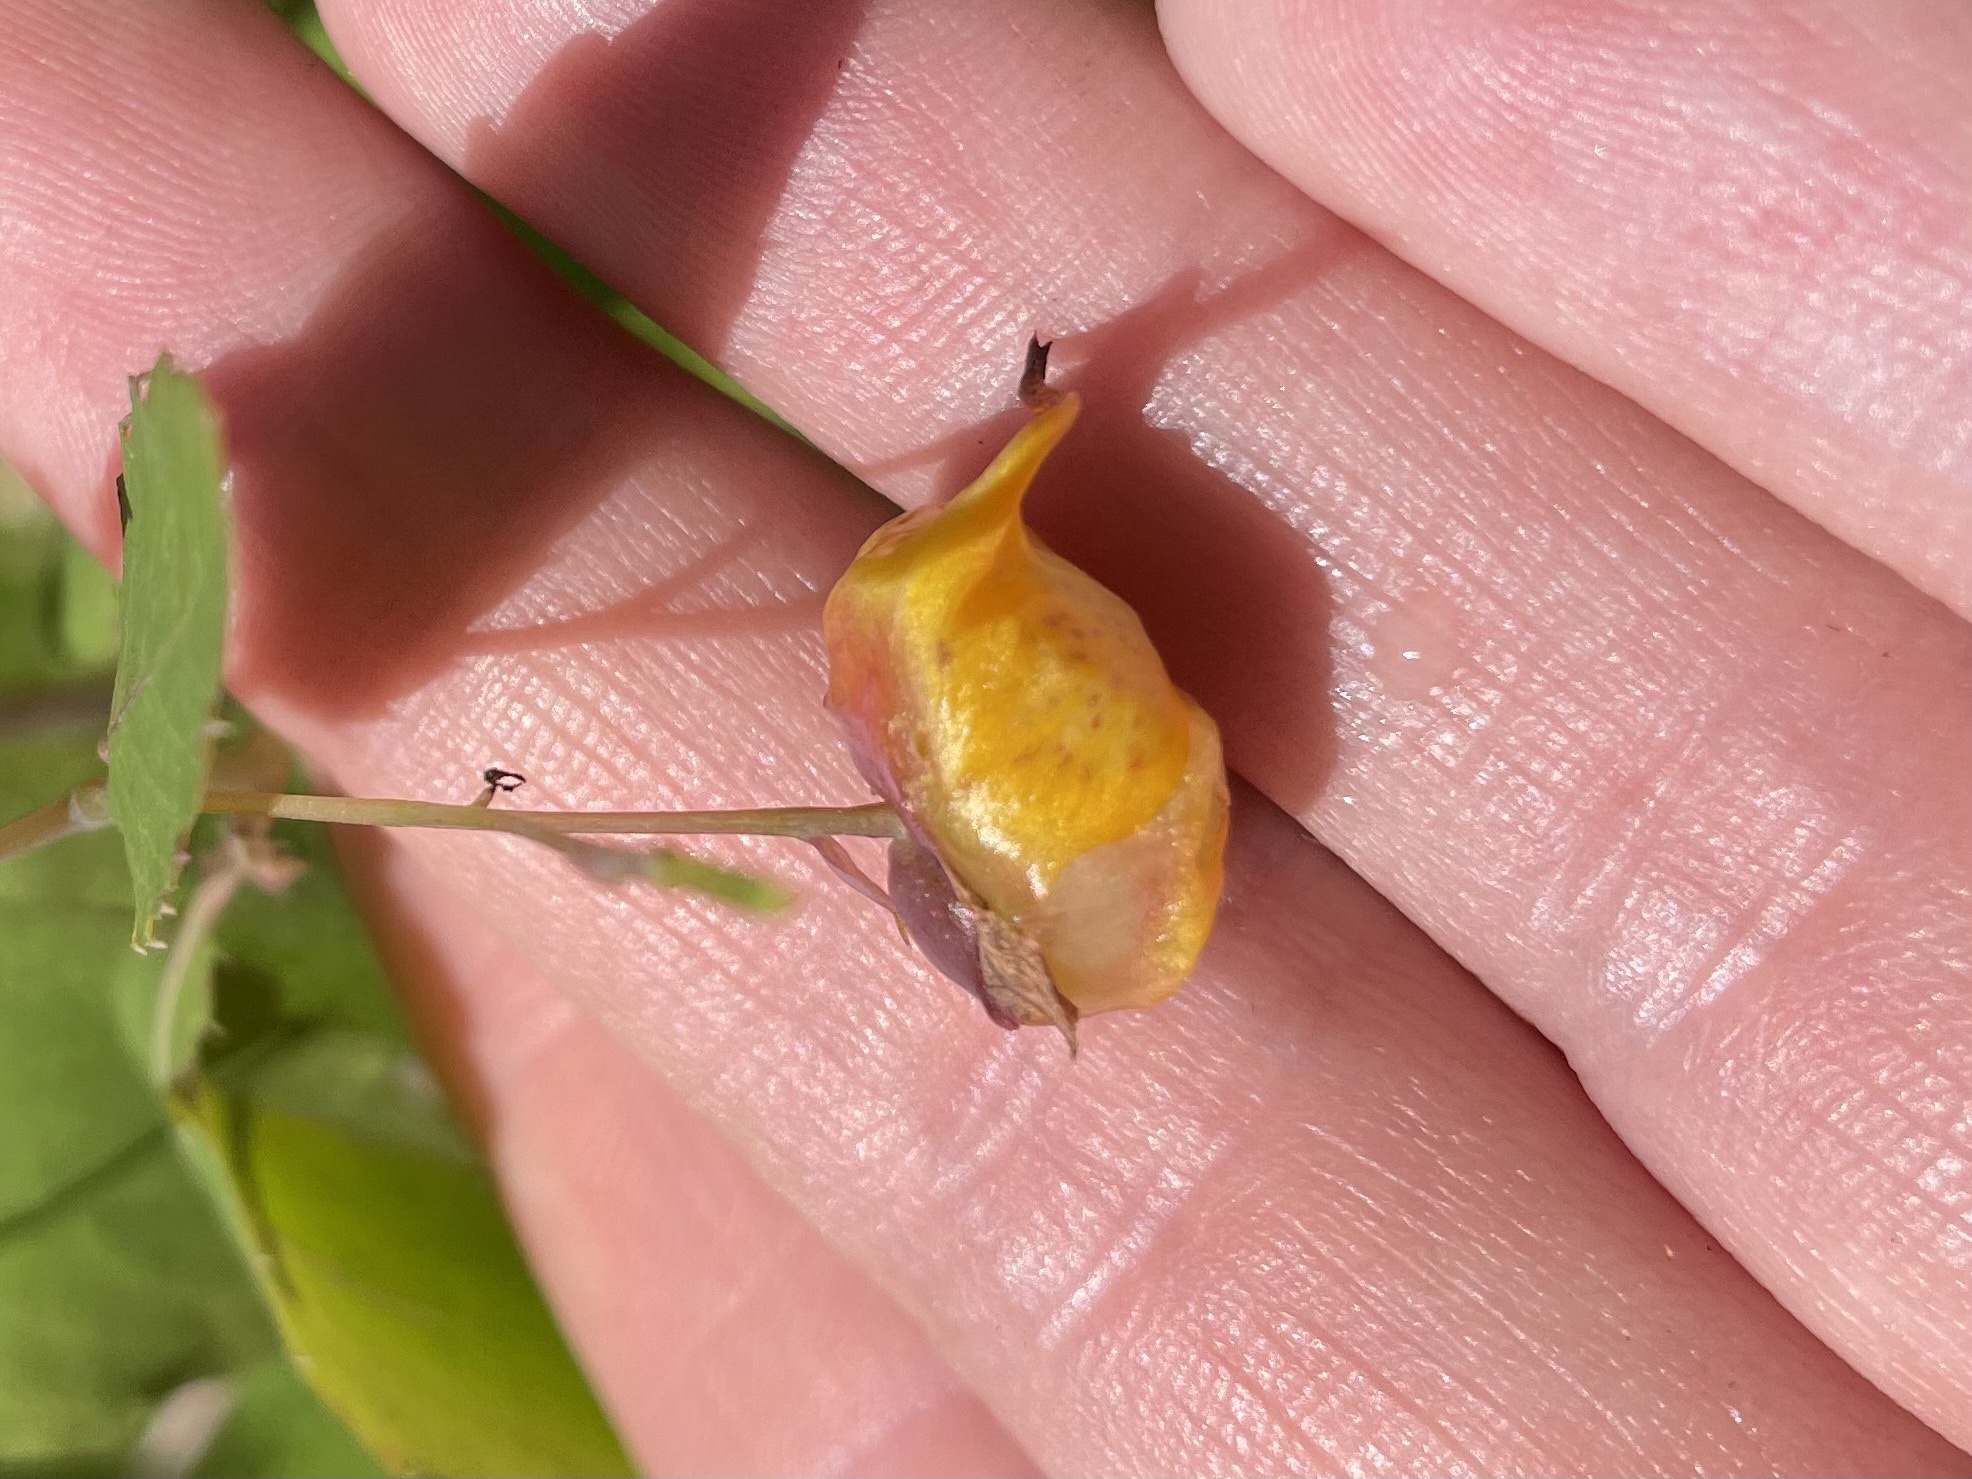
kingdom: Animalia
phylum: Arthropoda
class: Insecta
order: Diptera
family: Cecidomyiidae
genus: Schizomyia
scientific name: Schizomyia impatientis
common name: Jewelweed gall midge
